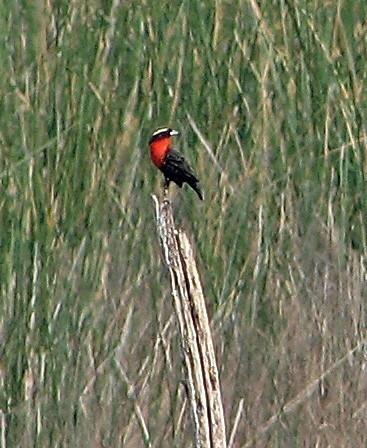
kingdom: Animalia
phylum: Chordata
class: Aves
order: Passeriformes
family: Icteridae
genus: Sturnella
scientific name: Sturnella superciliaris
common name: White-browed blackbird
